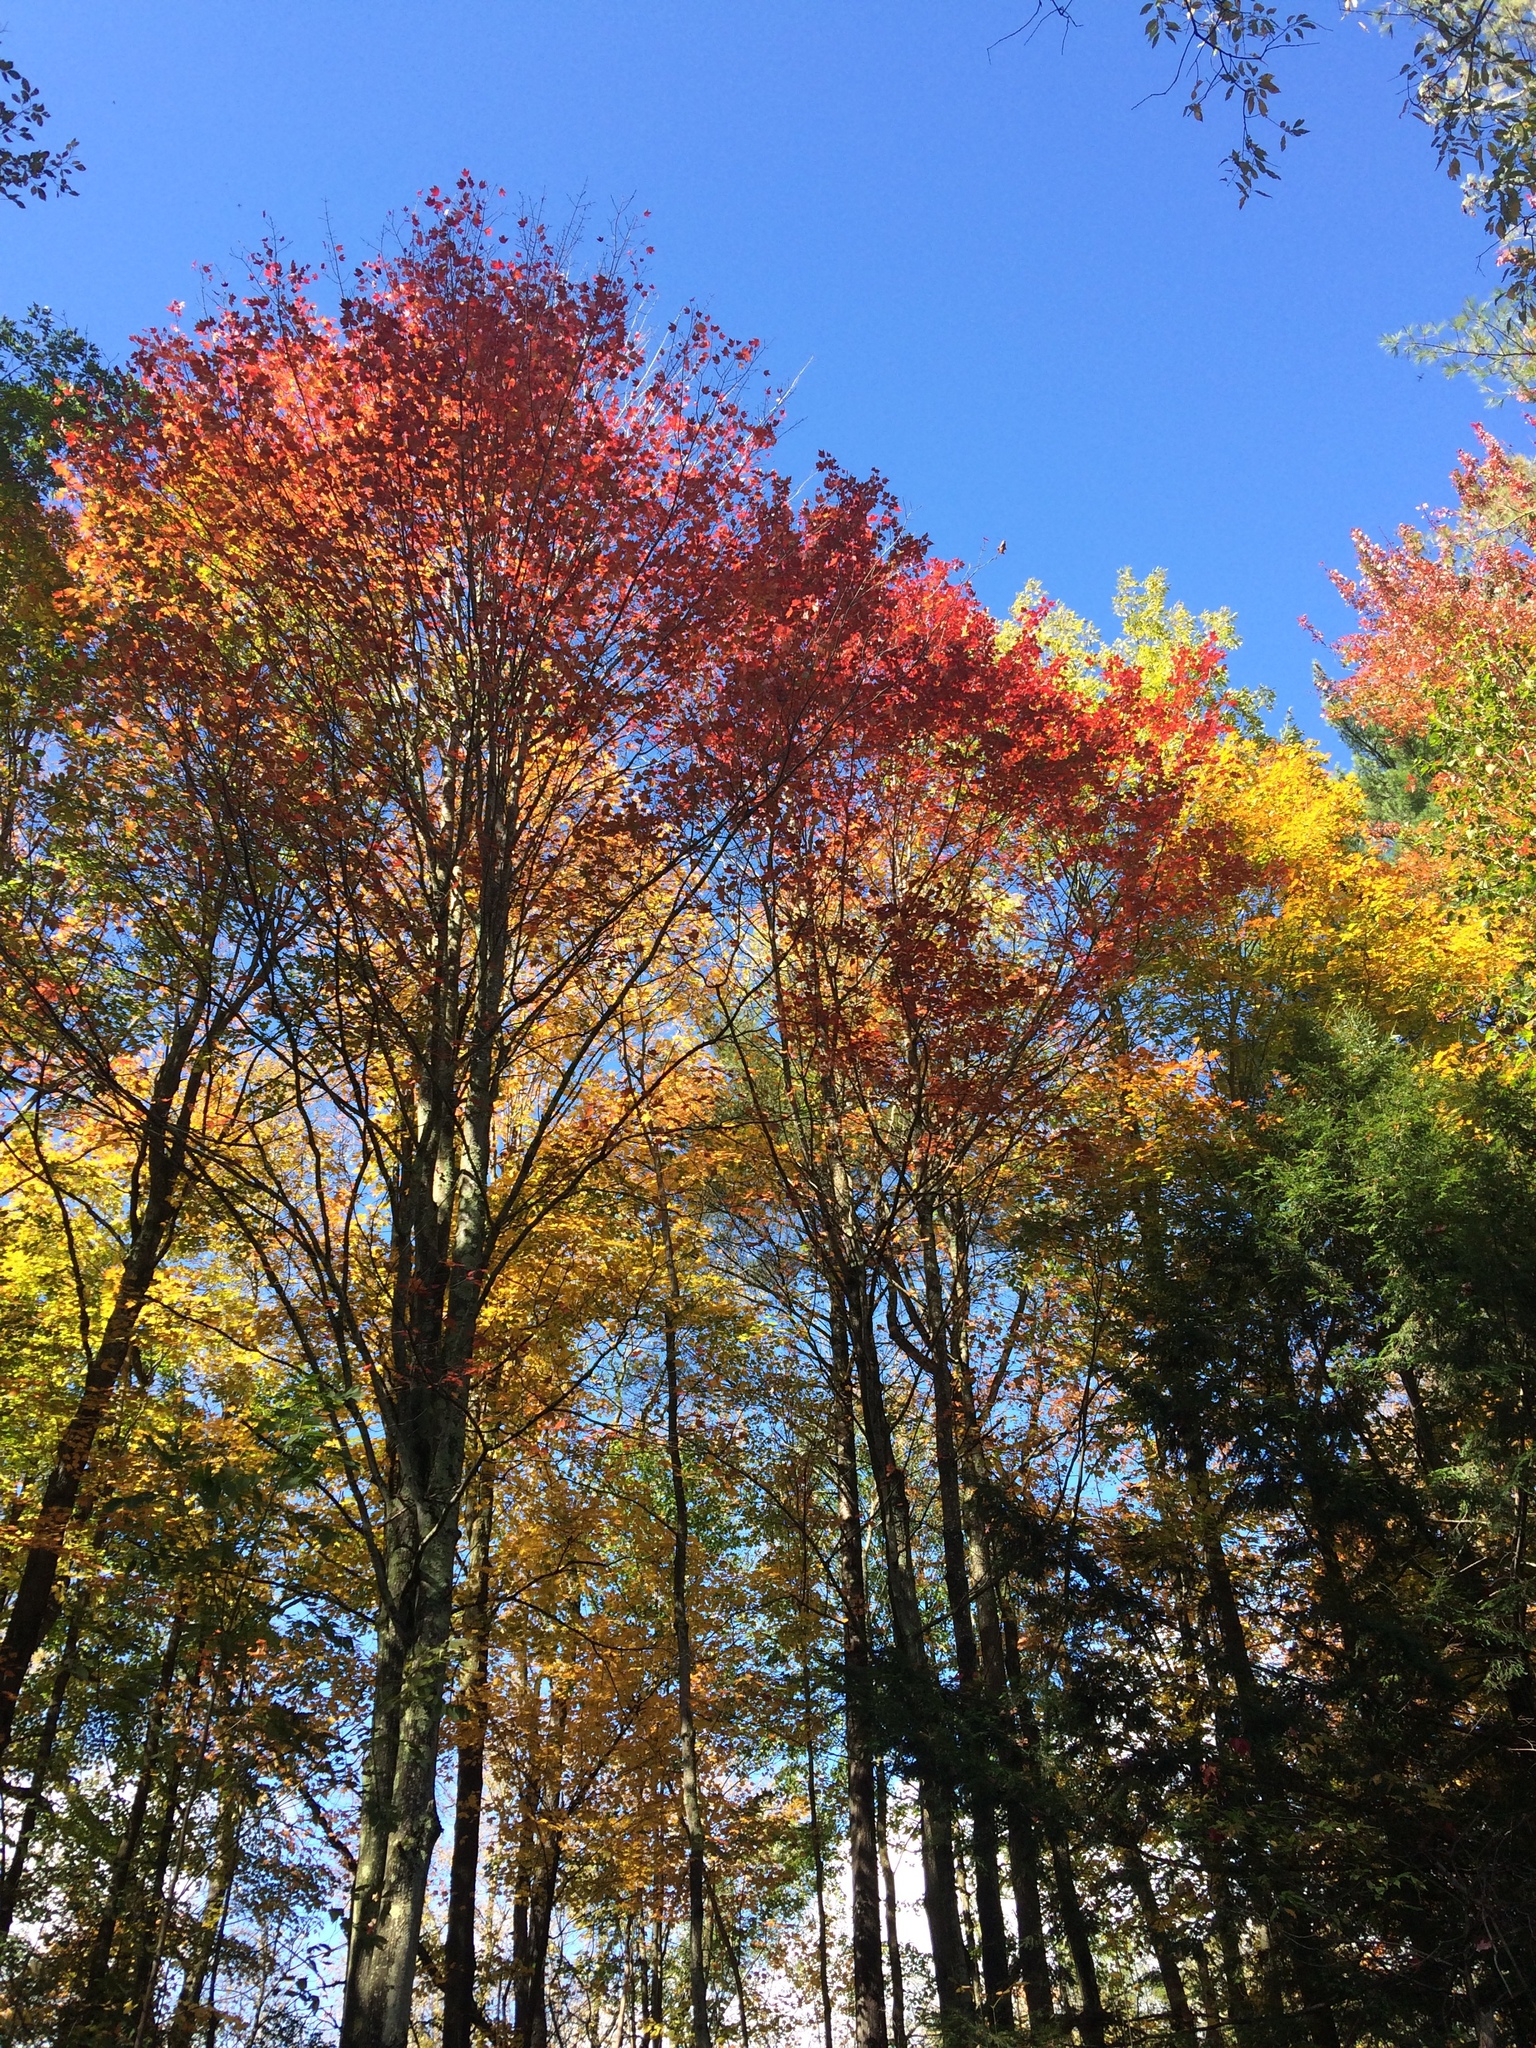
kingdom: Plantae
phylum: Tracheophyta
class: Magnoliopsida
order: Sapindales
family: Sapindaceae
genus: Acer
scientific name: Acer rubrum
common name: Red maple
